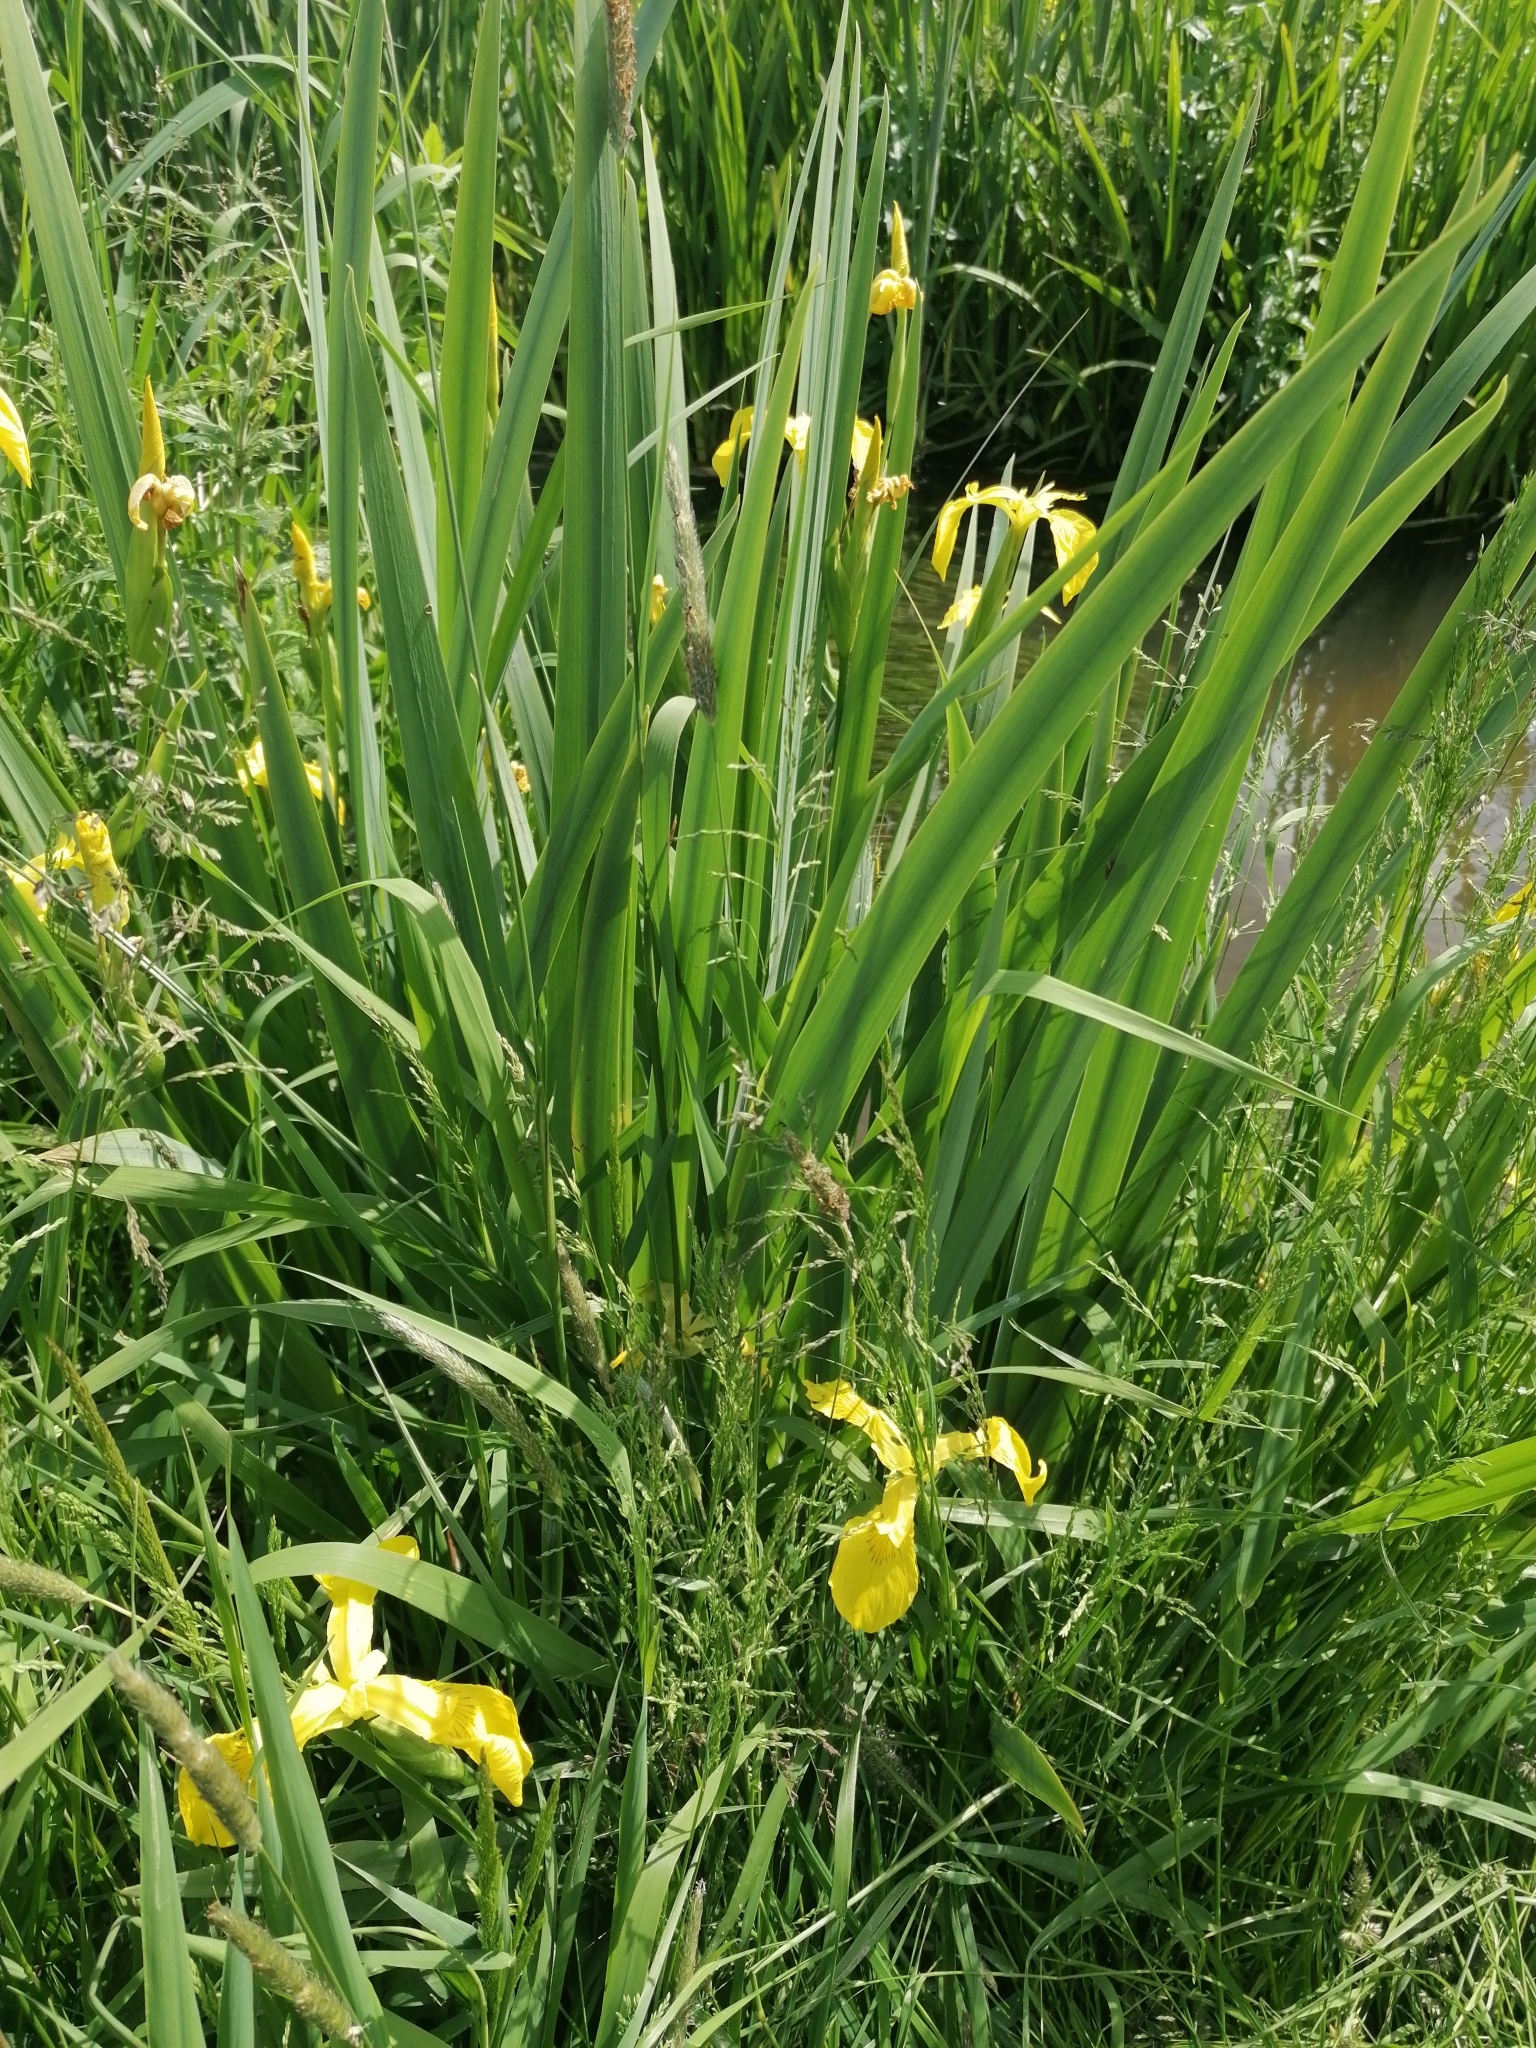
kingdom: Plantae
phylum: Tracheophyta
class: Liliopsida
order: Asparagales
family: Iridaceae
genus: Iris
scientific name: Iris pseudacorus
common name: Yellow flag
